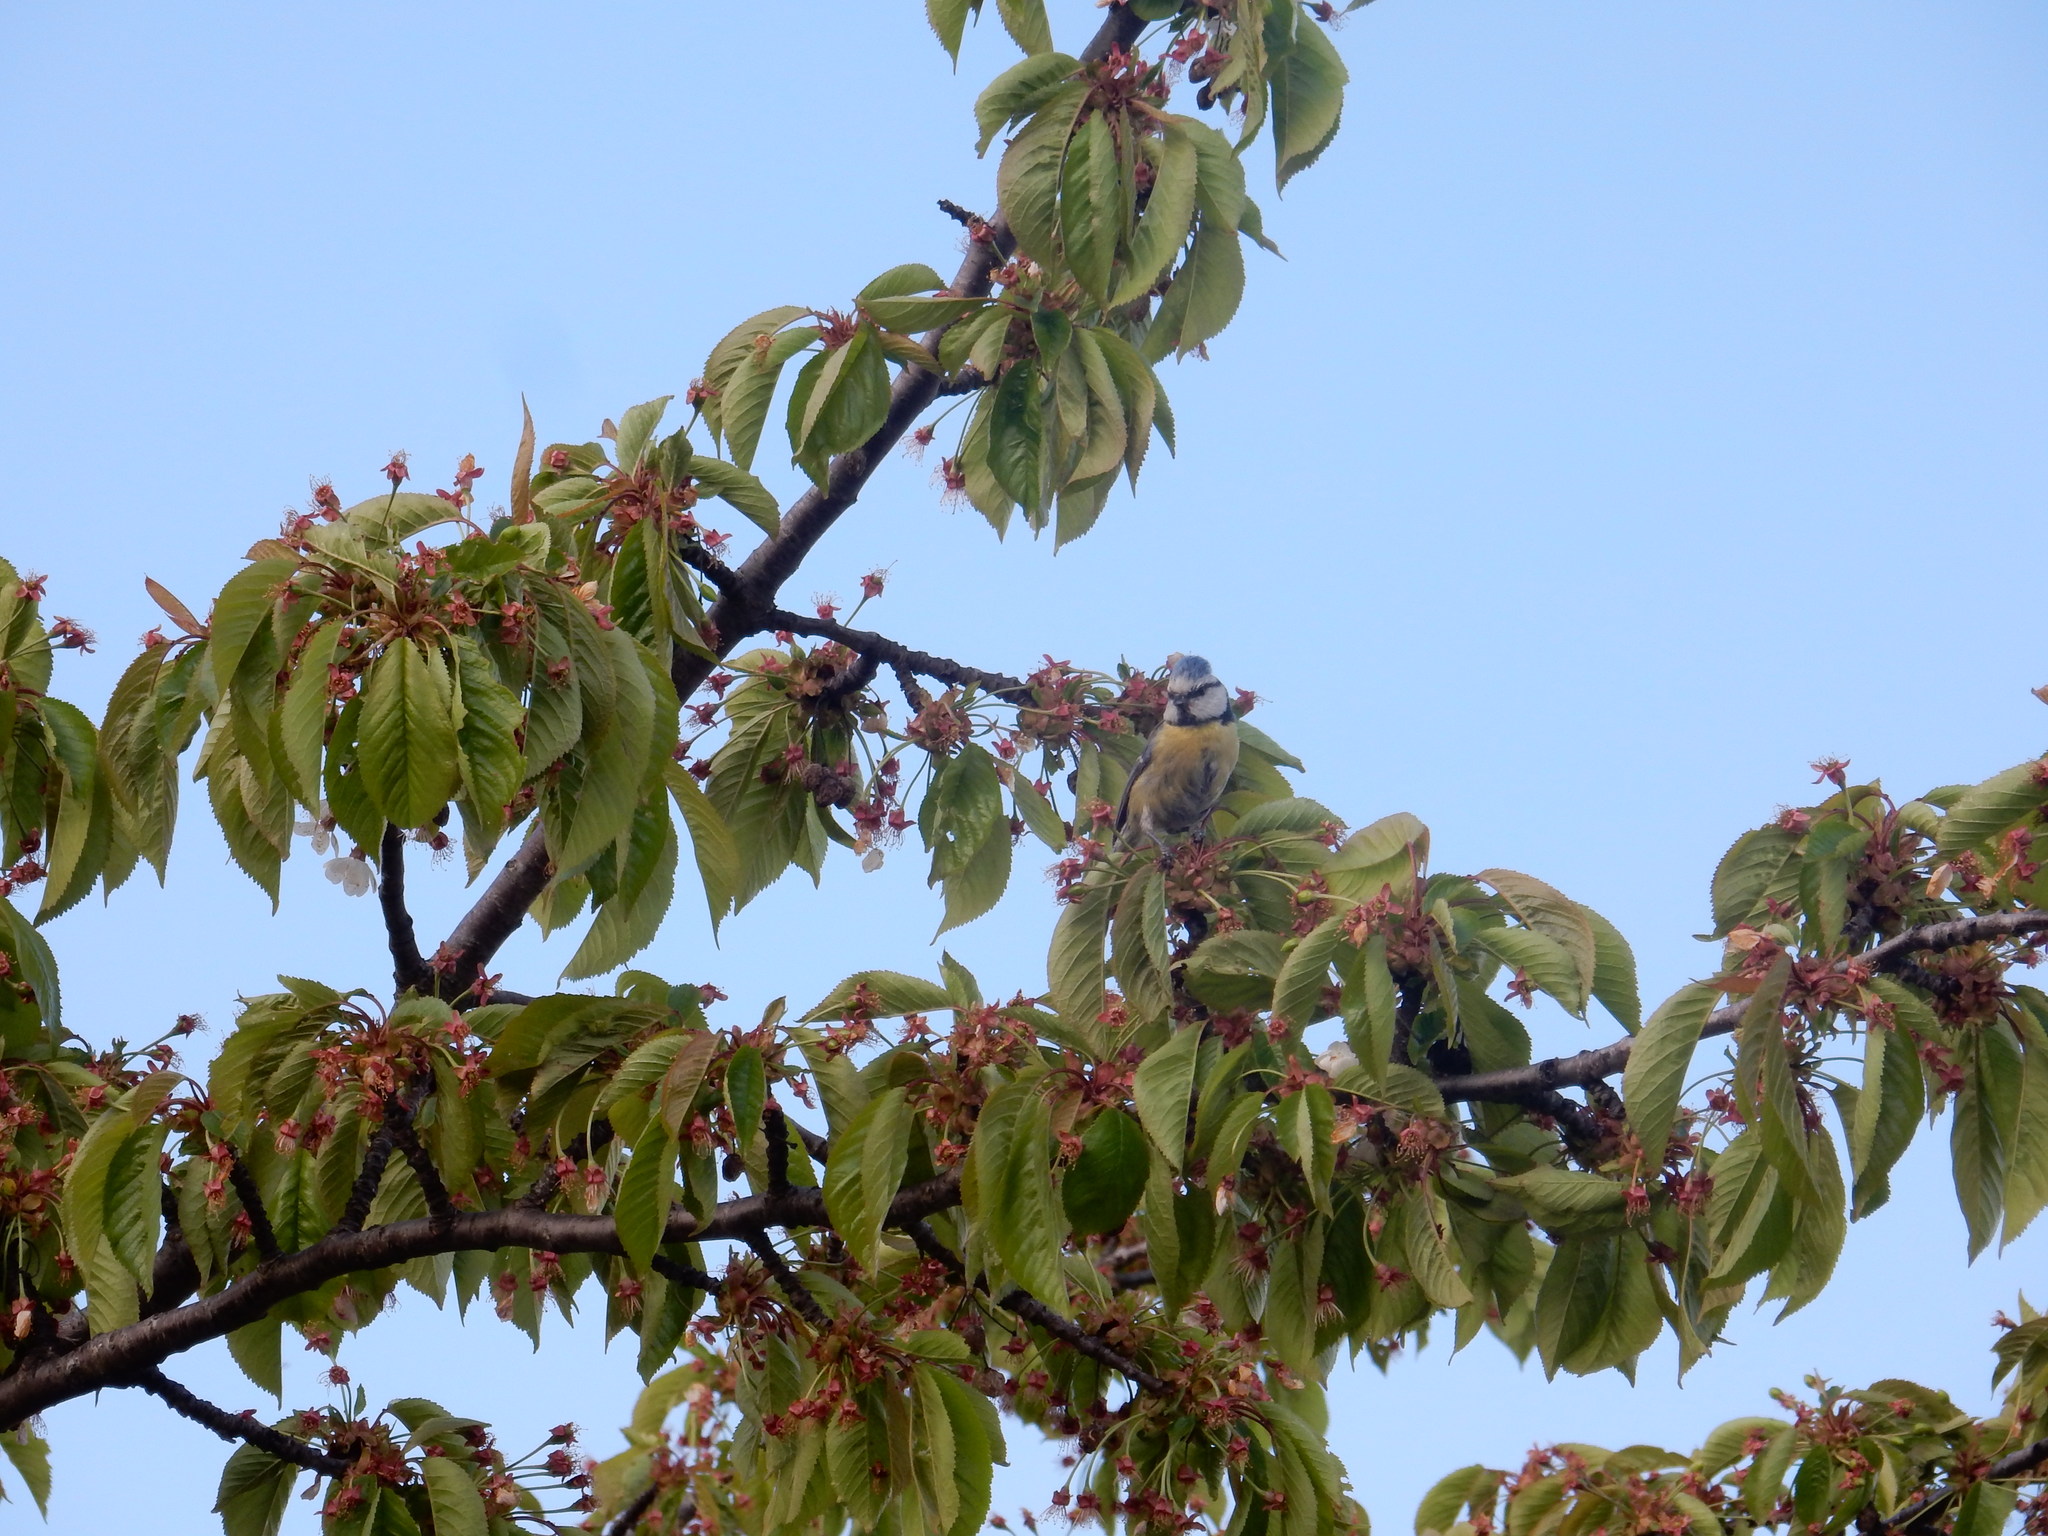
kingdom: Animalia
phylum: Chordata
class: Aves
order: Passeriformes
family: Paridae
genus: Cyanistes
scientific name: Cyanistes caeruleus
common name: Eurasian blue tit
